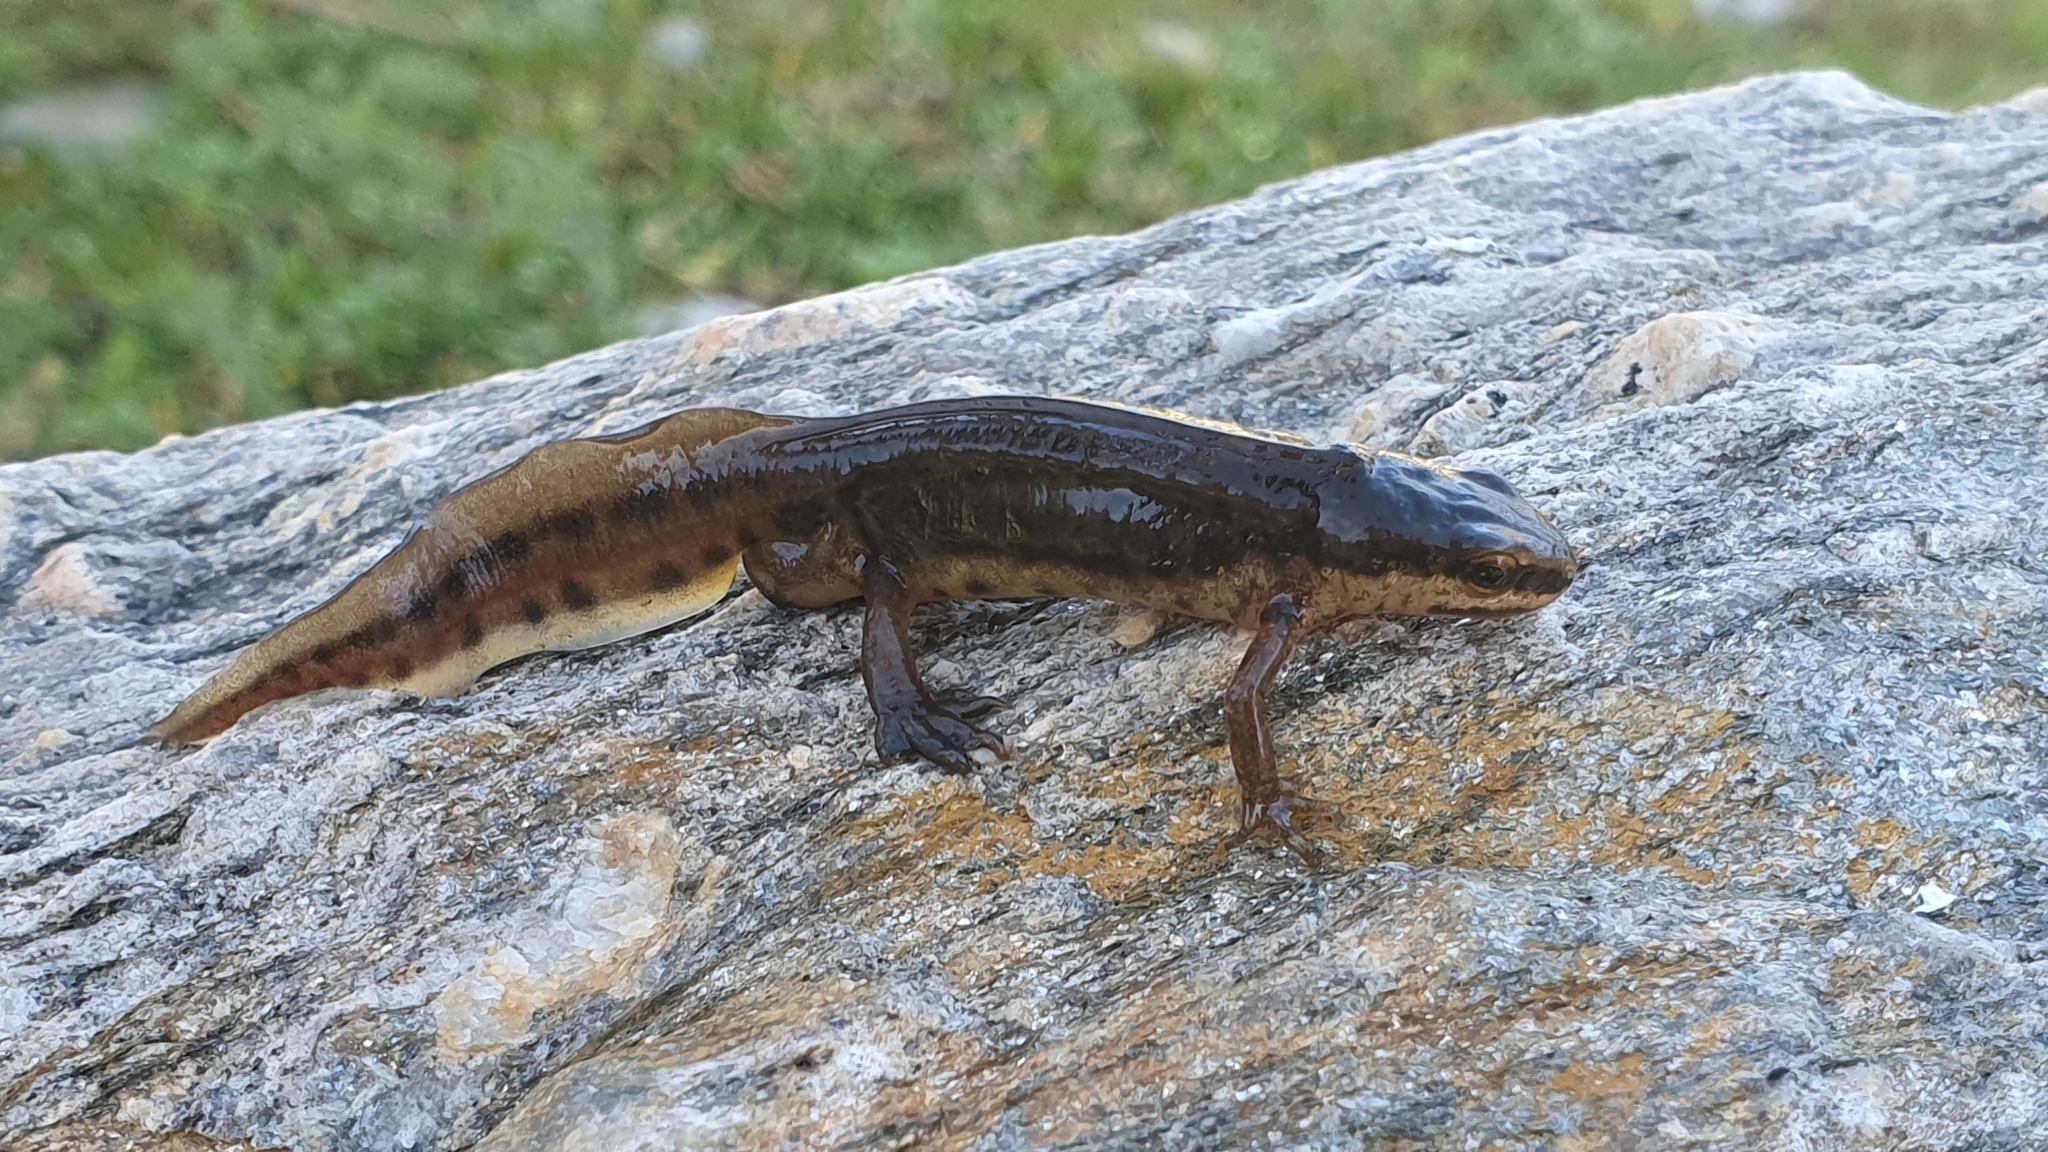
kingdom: Animalia
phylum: Chordata
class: Amphibia
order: Caudata
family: Salamandridae
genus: Lissotriton
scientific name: Lissotriton helveticus
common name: Palmate newt
